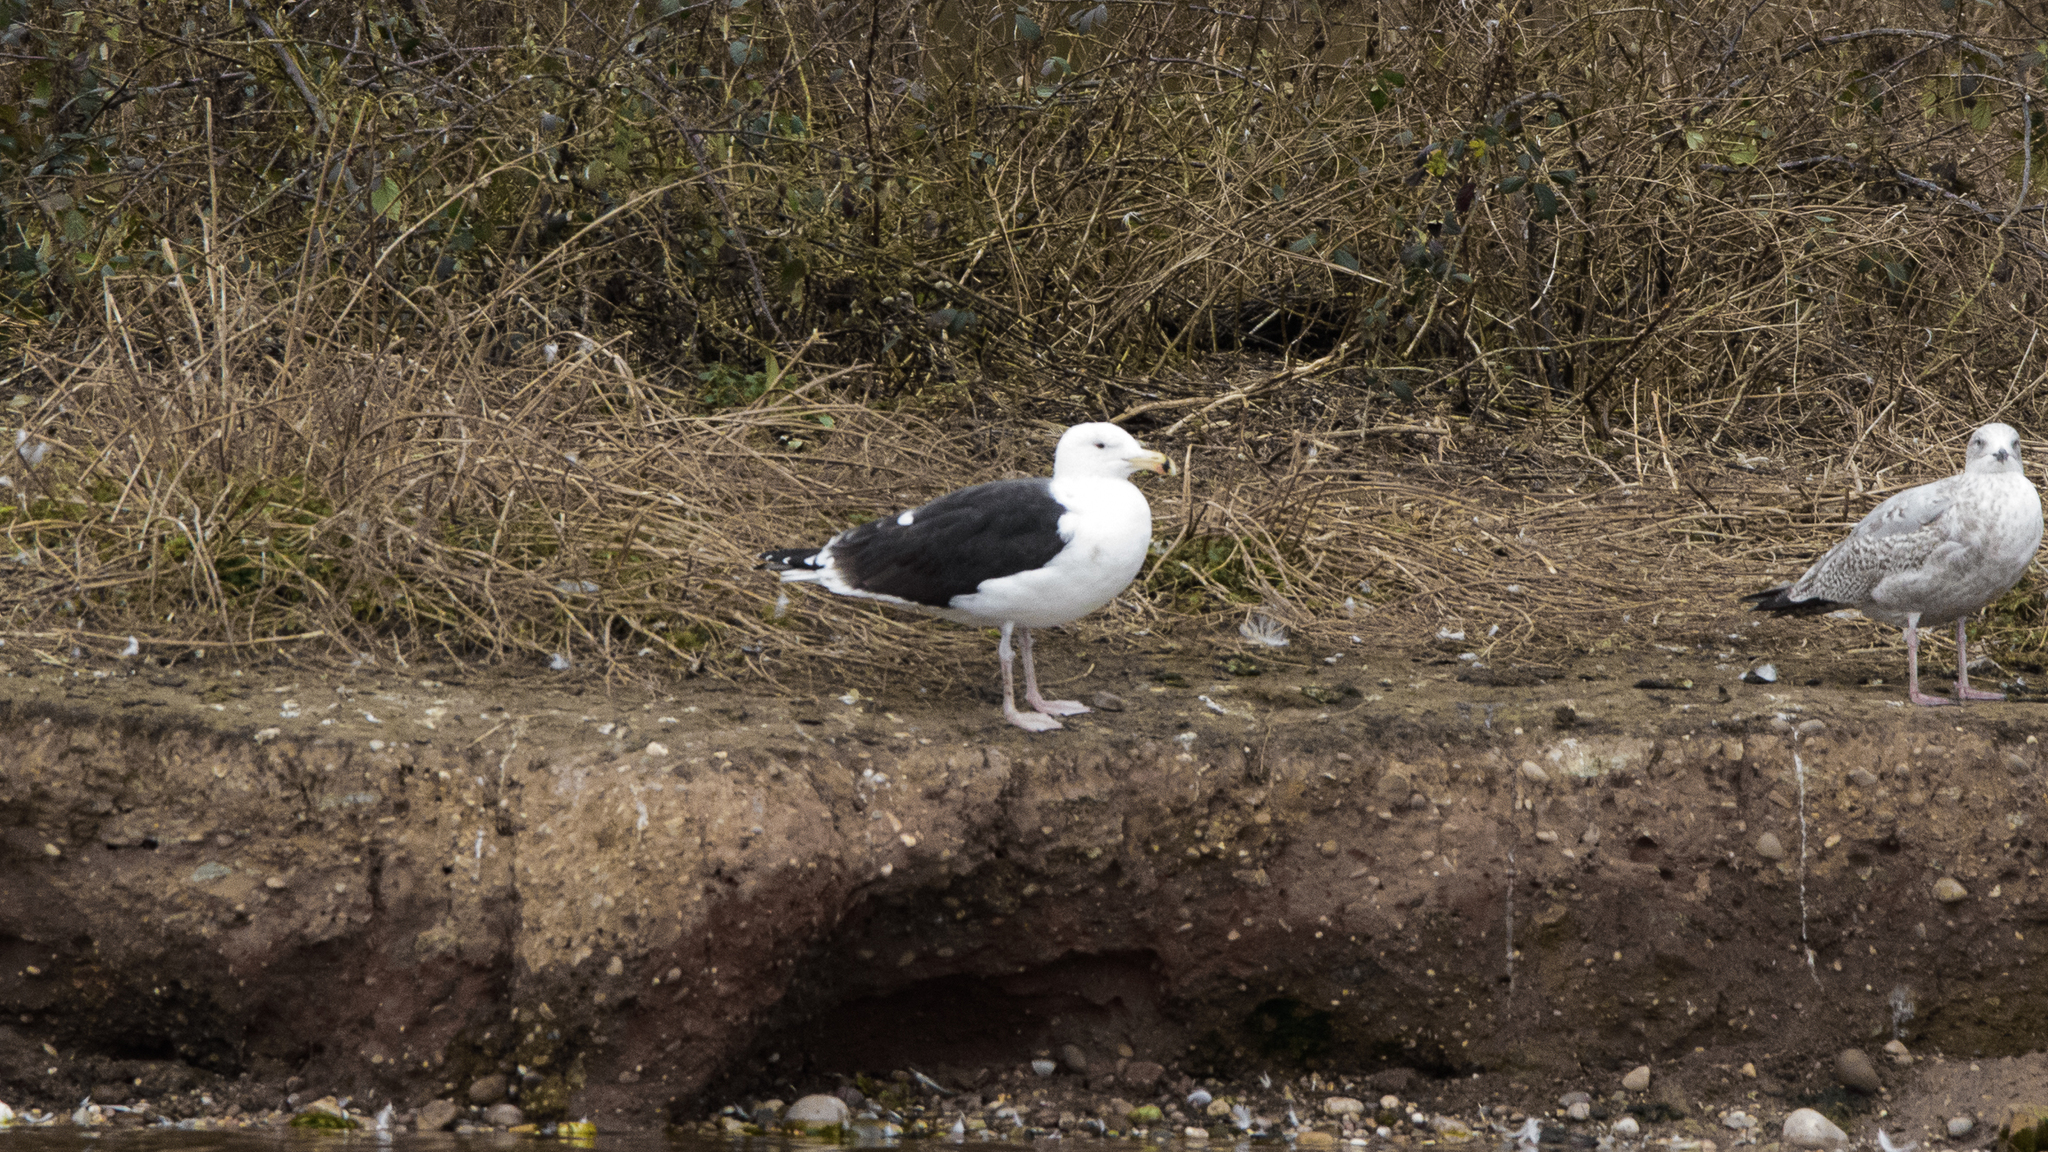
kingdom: Animalia
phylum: Chordata
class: Aves
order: Charadriiformes
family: Laridae
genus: Larus
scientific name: Larus marinus
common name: Great black-backed gull
